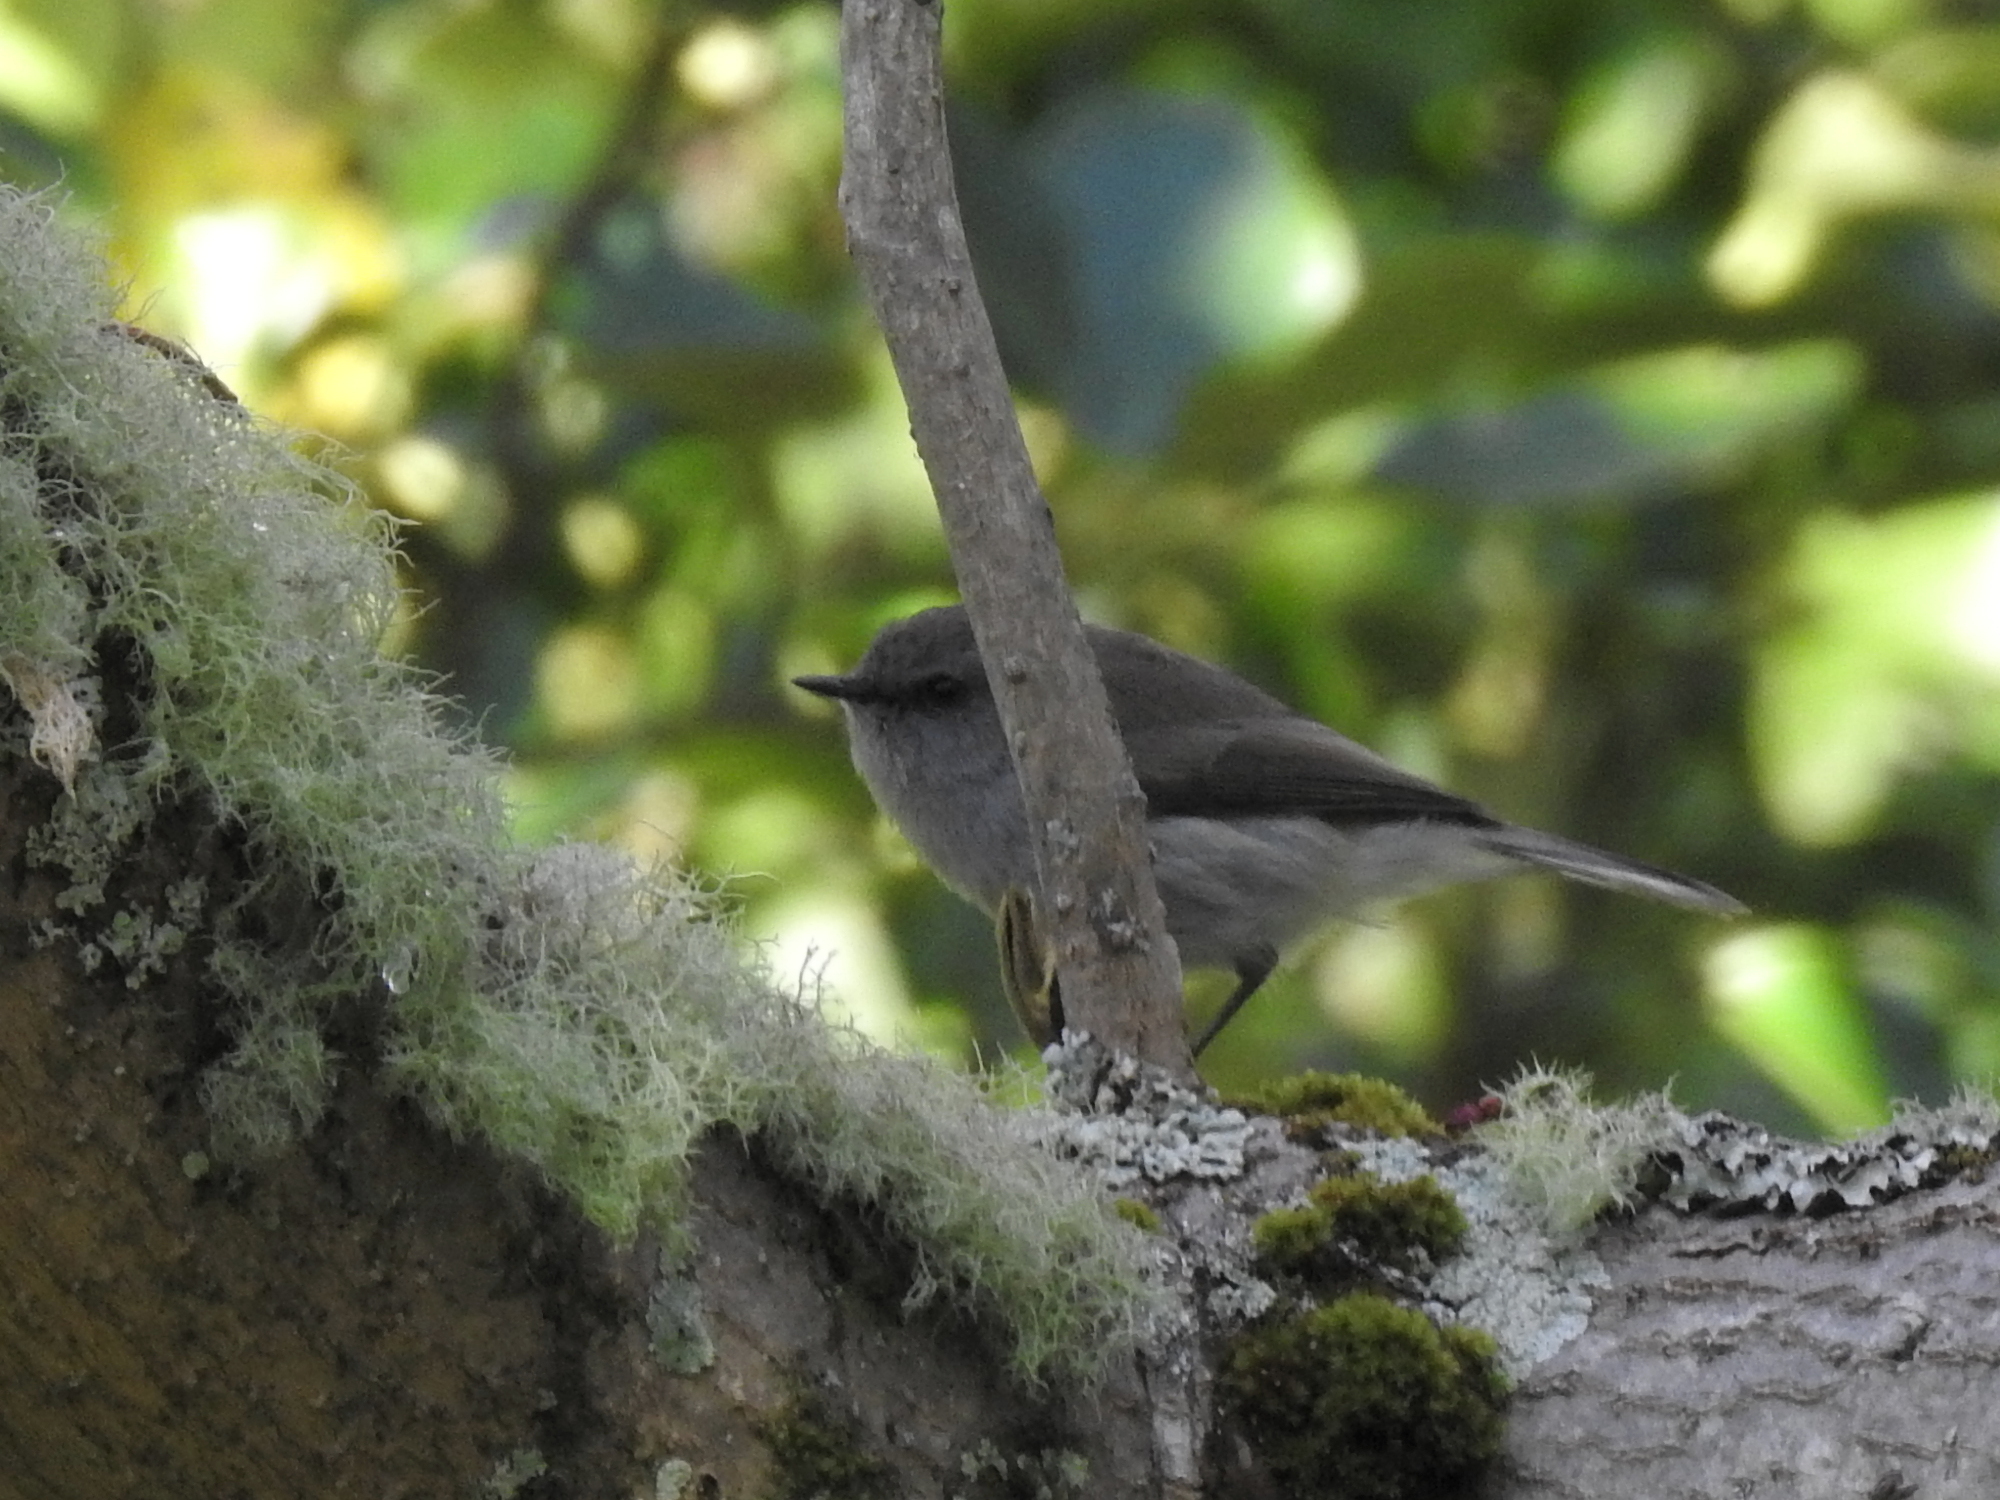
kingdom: Animalia
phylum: Chordata
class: Aves
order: Passeriformes
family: Acanthizidae
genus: Gerygone
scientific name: Gerygone igata
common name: Grey gerygone
